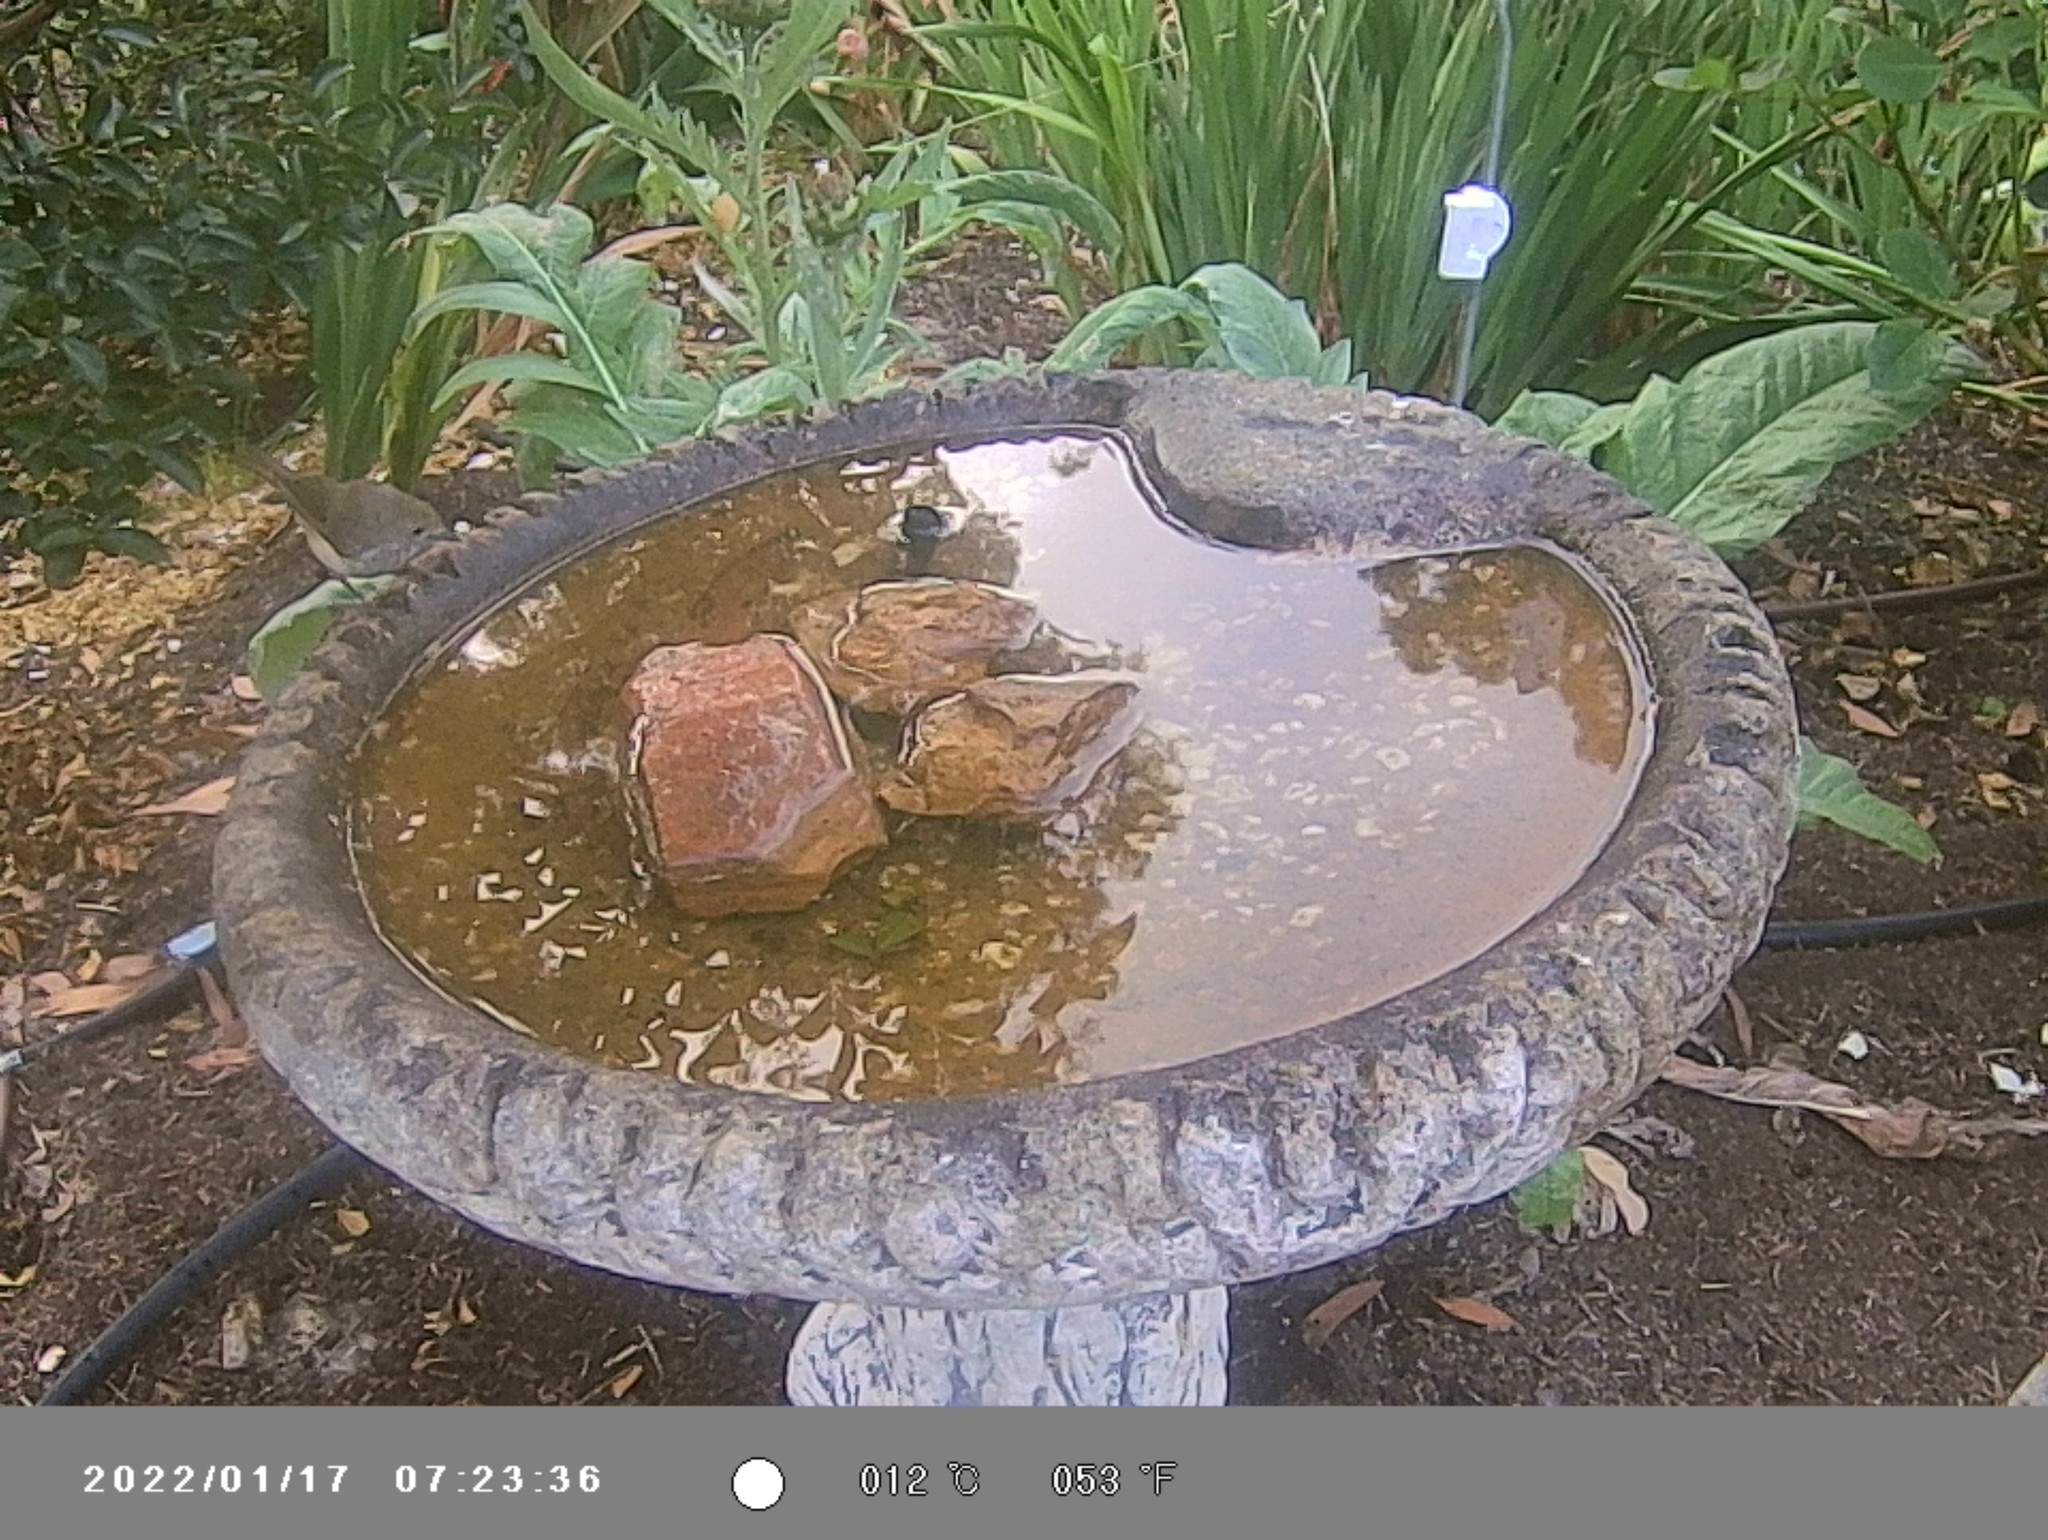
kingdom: Animalia
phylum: Chordata
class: Aves
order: Passeriformes
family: Acanthizidae
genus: Acanthiza
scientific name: Acanthiza pusilla
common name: Brown thornbill
